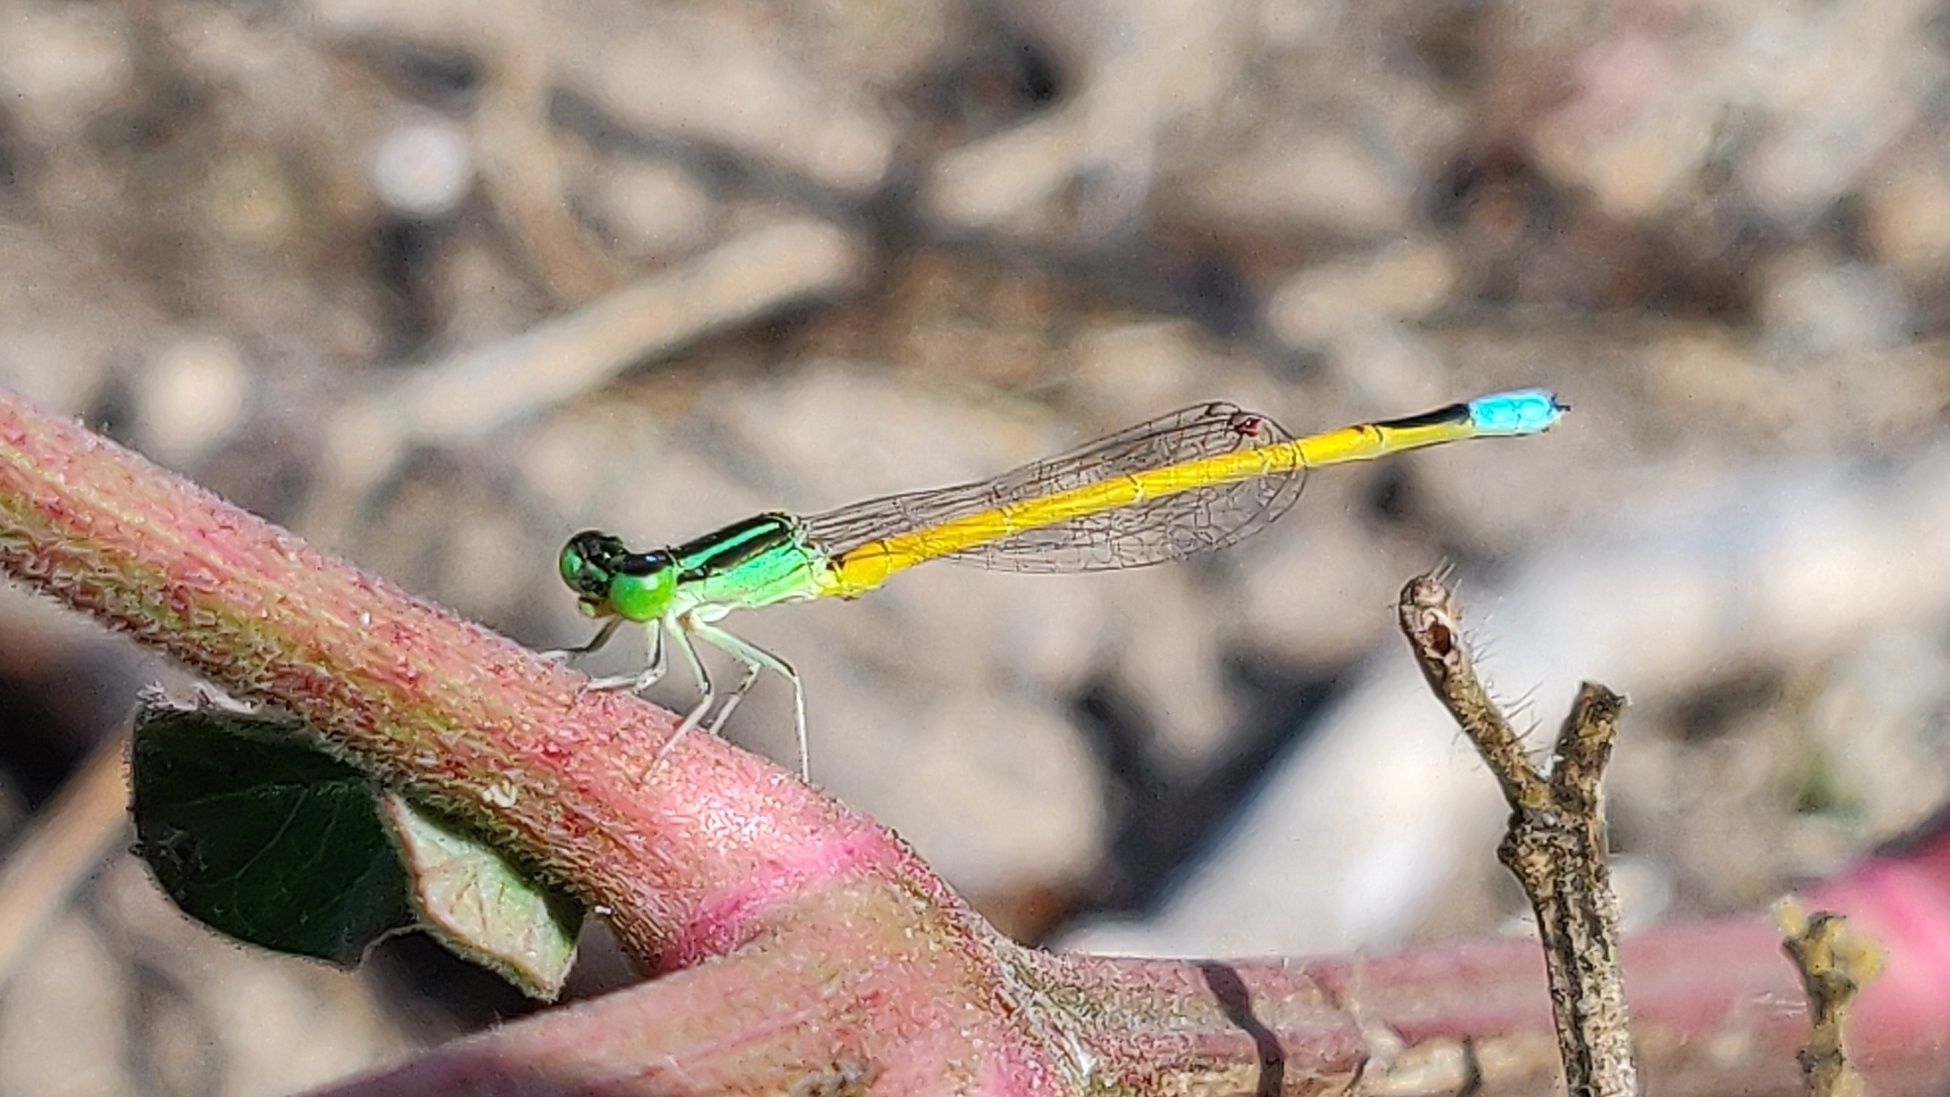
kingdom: Animalia
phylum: Arthropoda
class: Insecta
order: Odonata
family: Coenagrionidae
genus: Ischnura
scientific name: Ischnura rubilio
